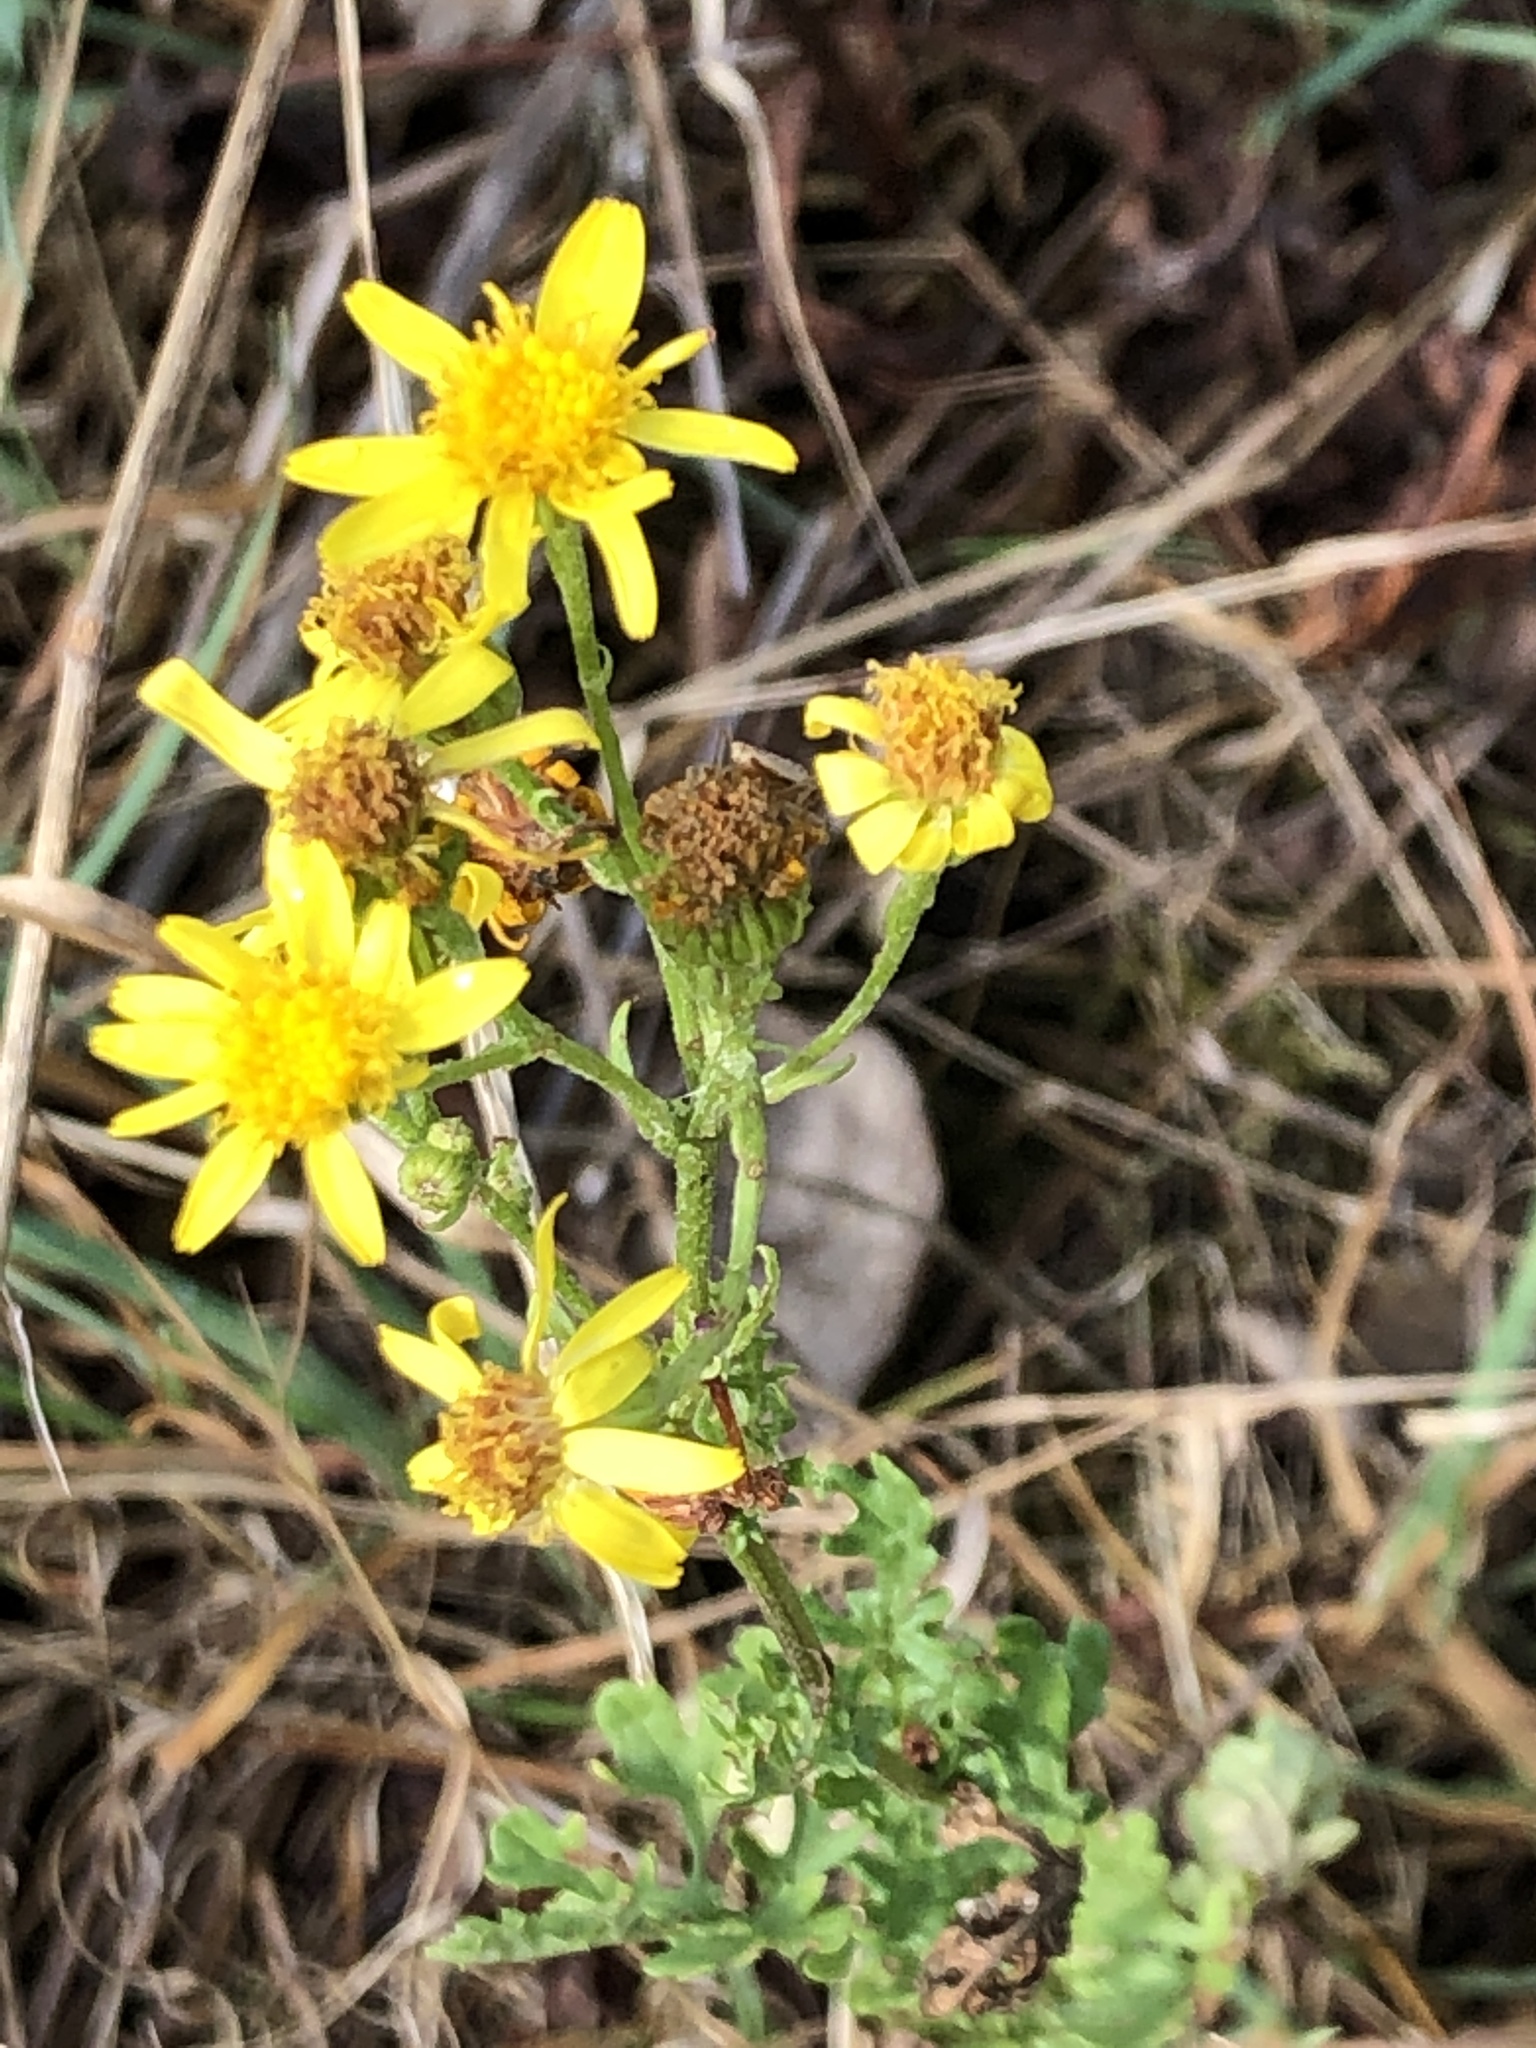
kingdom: Plantae
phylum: Tracheophyta
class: Magnoliopsida
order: Asterales
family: Asteraceae
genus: Jacobaea
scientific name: Jacobaea vulgaris
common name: Stinking willie
